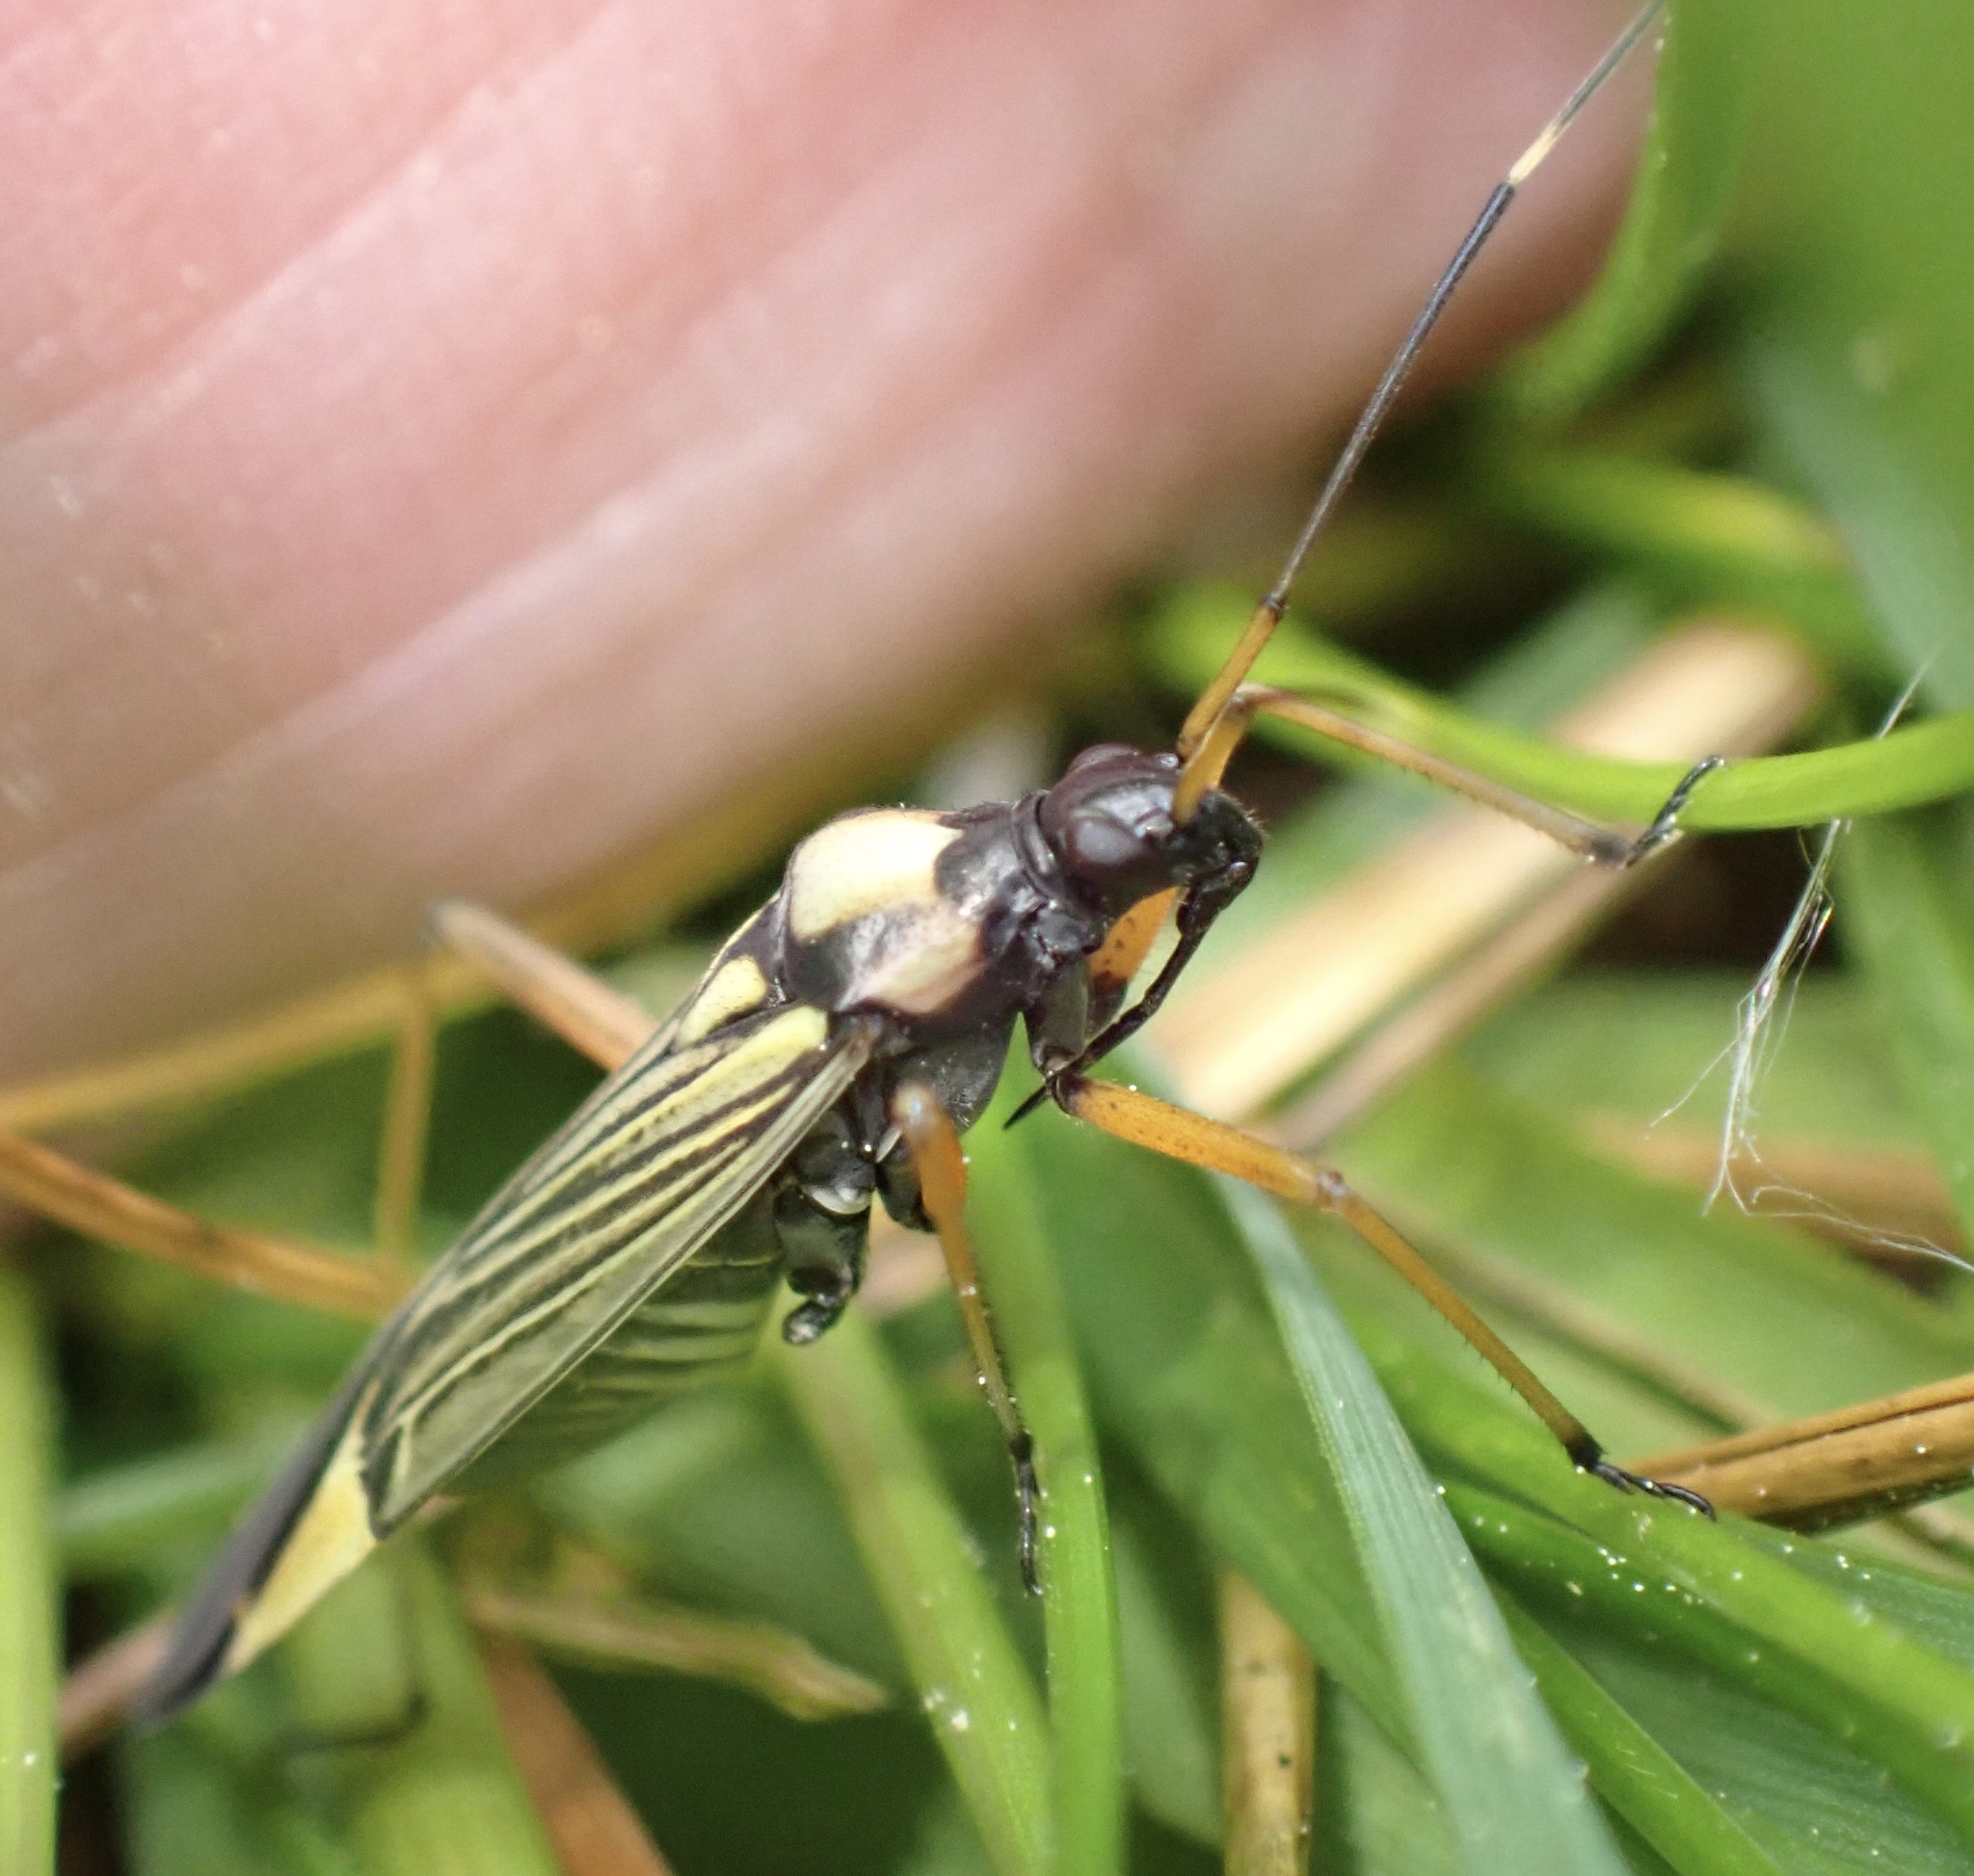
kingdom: Animalia
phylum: Arthropoda
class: Insecta
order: Hemiptera
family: Miridae
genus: Miris
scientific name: Miris striatus
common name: Fine streaked bugkin
